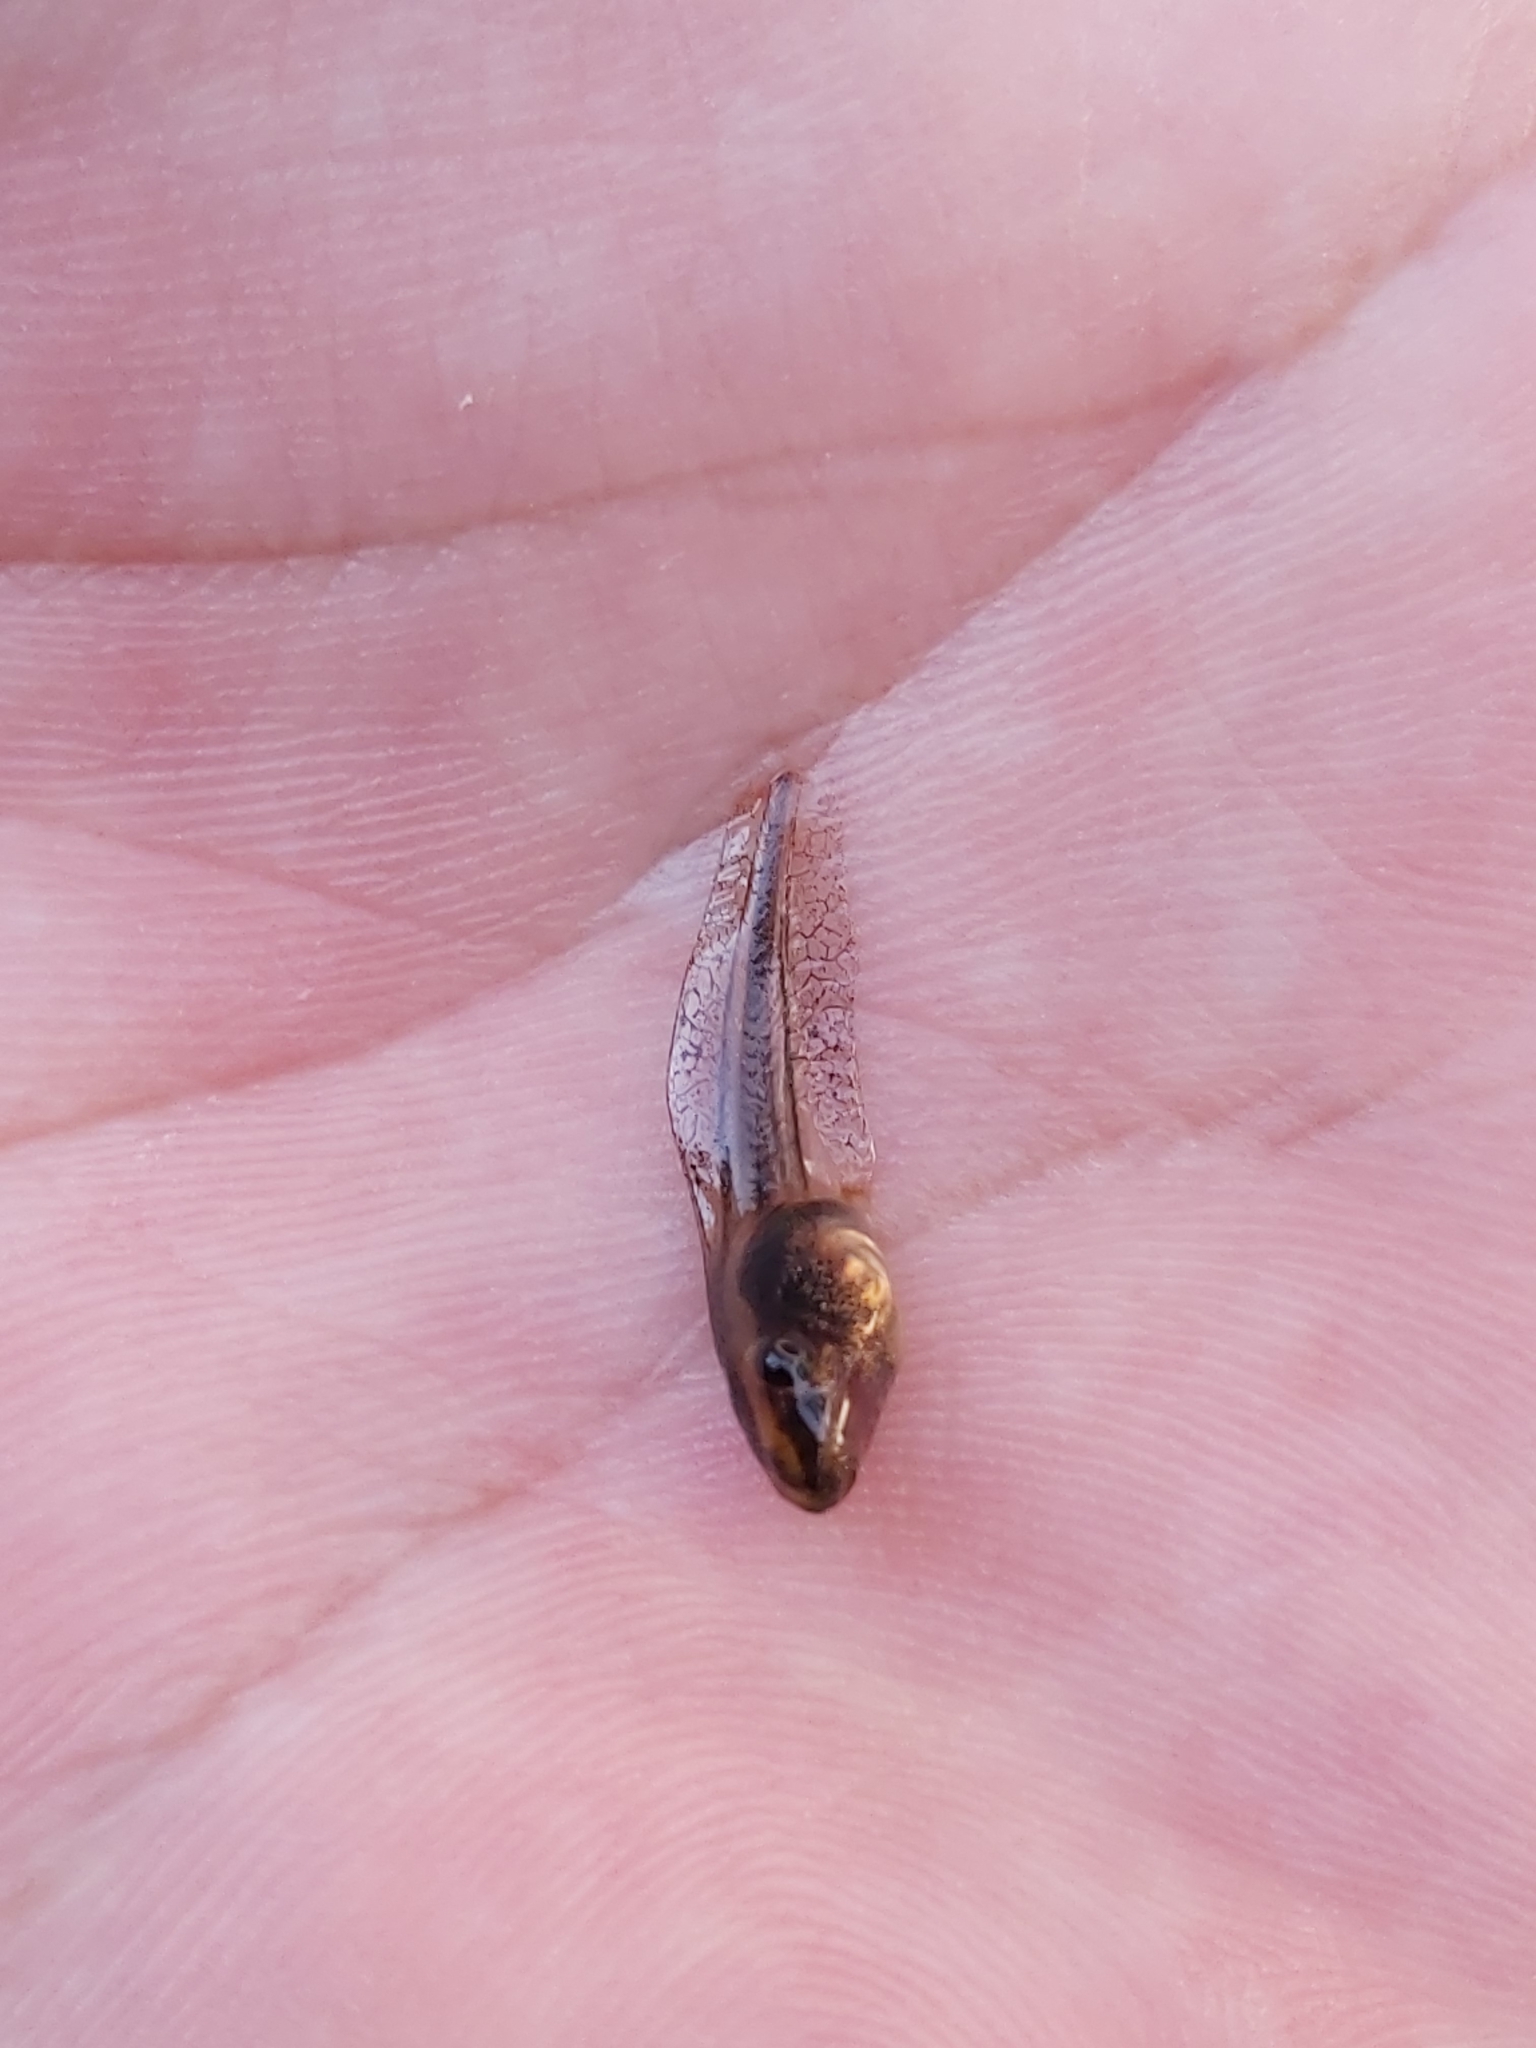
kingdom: Animalia
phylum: Chordata
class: Amphibia
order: Anura
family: Pelodryadidae
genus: Litoria
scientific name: Litoria peronii
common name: Emerald spotted treefrog
